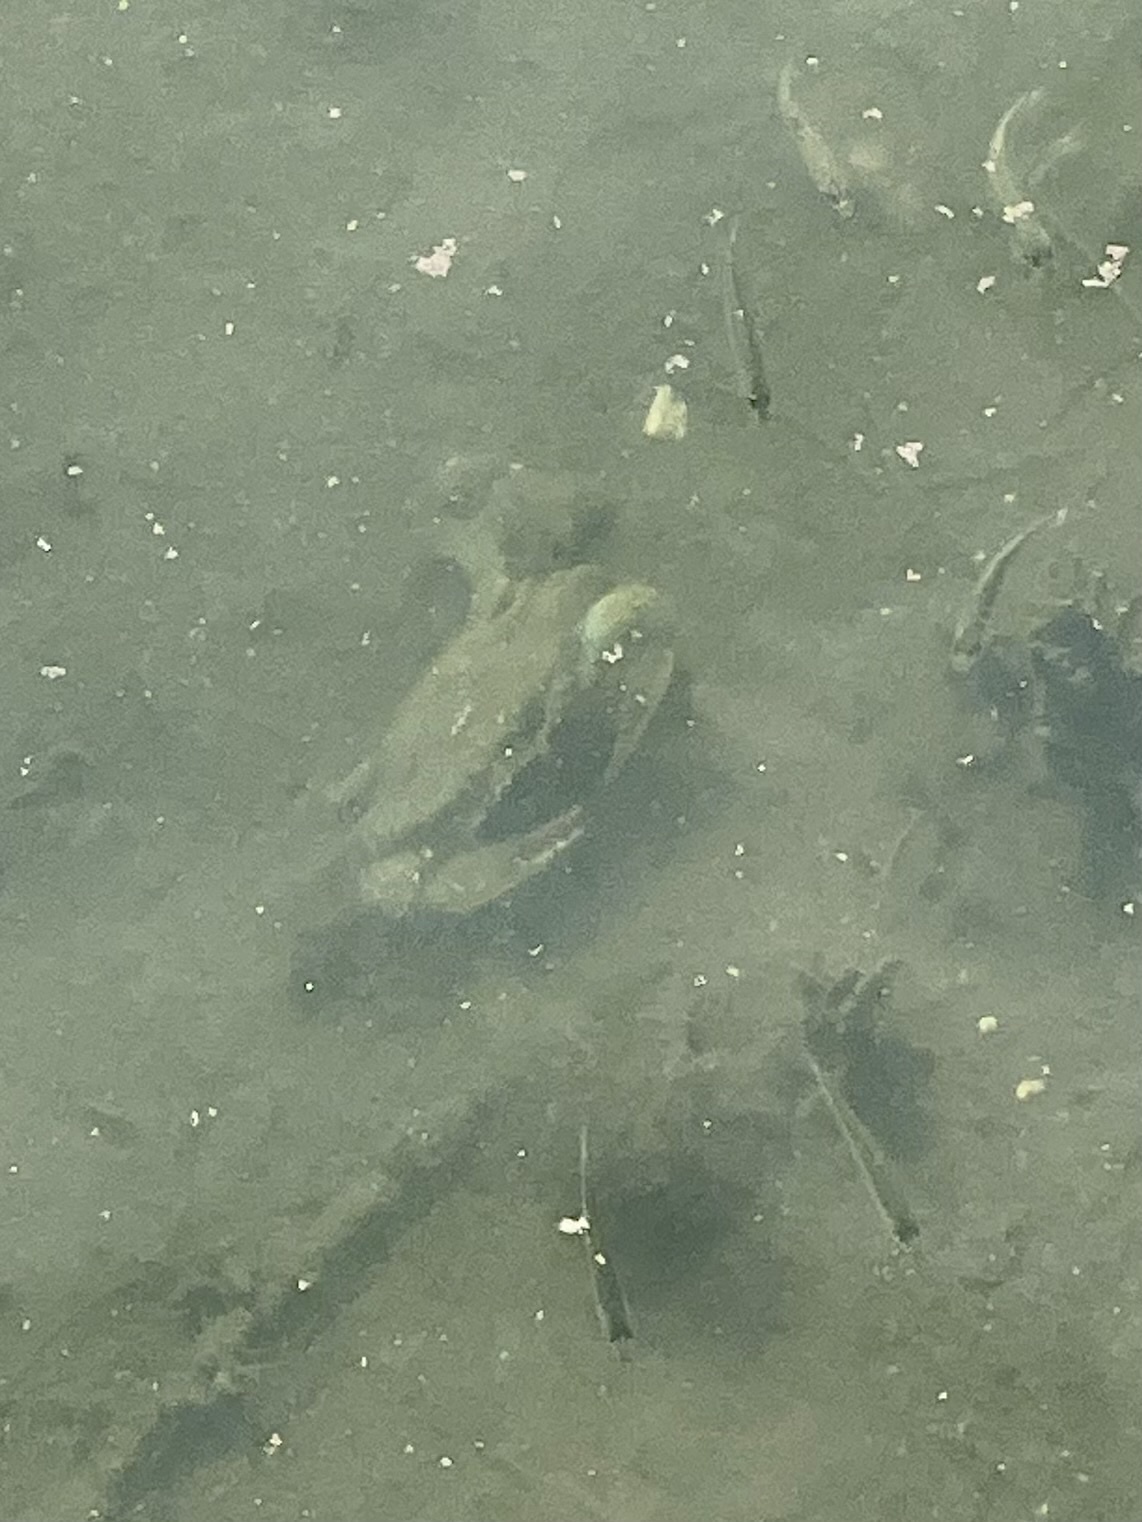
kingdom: Animalia
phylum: Arthropoda
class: Malacostraca
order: Decapoda
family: Portunidae
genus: Callinectes
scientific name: Callinectes sapidus
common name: Blue crab
